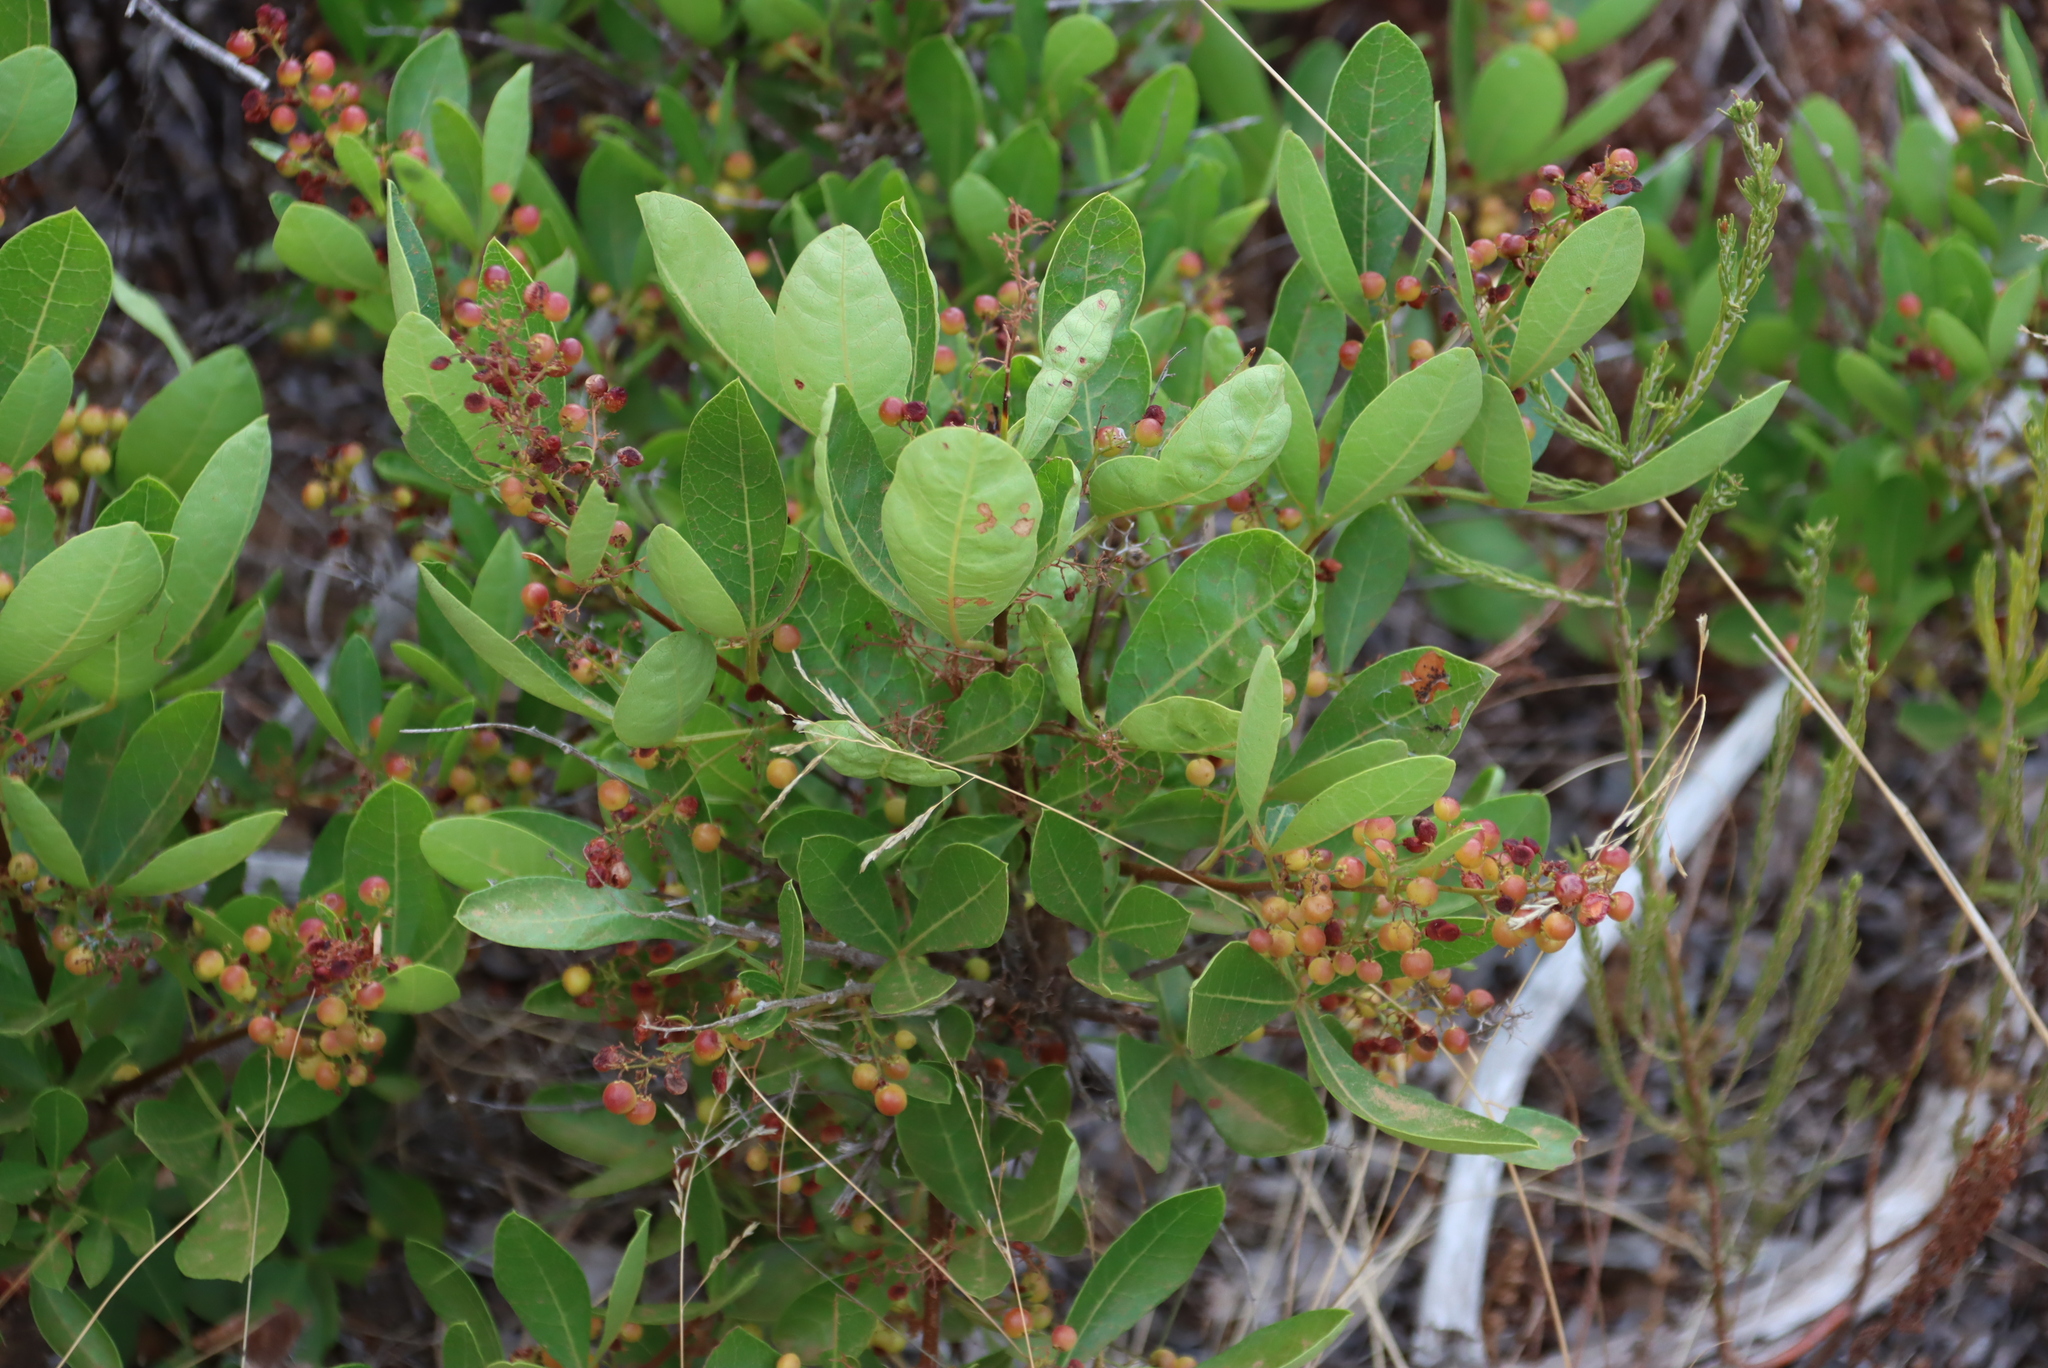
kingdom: Plantae
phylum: Tracheophyta
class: Magnoliopsida
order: Sapindales
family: Anacardiaceae
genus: Searsia
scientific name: Searsia laevigata
